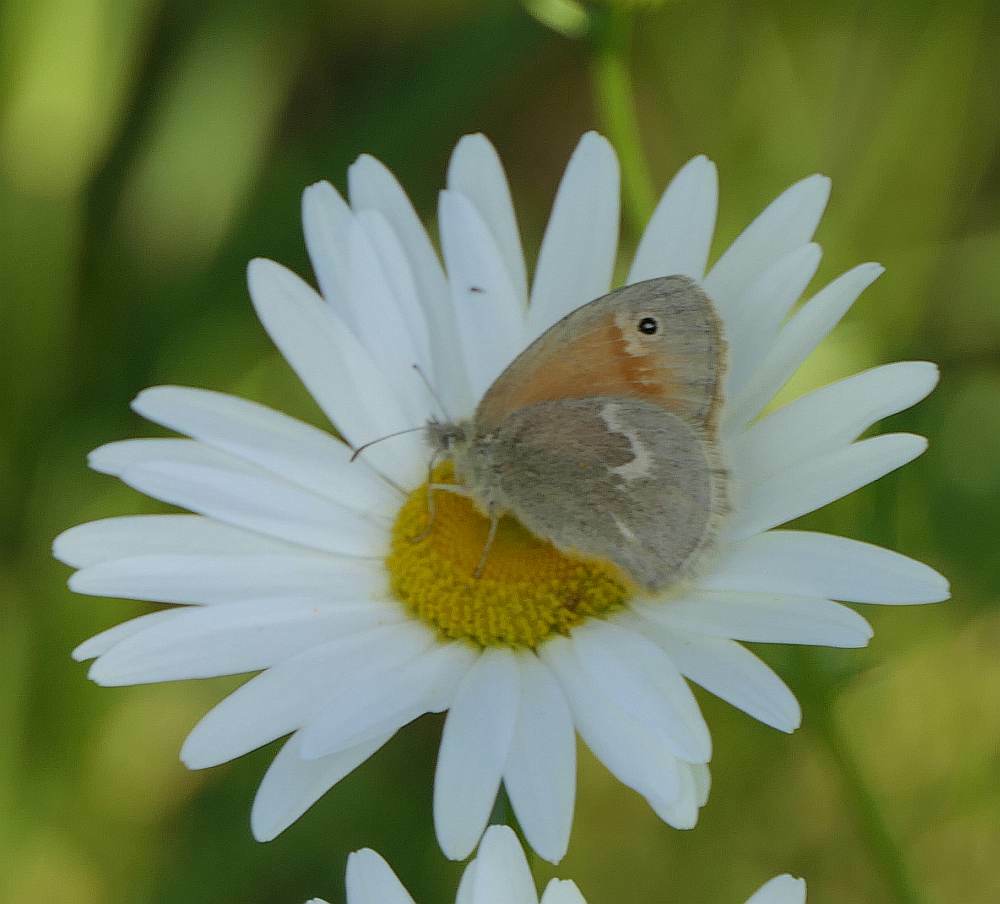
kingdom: Animalia
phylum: Arthropoda
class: Insecta
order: Lepidoptera
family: Nymphalidae
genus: Coenonympha
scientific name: Coenonympha california
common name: Common ringlet
